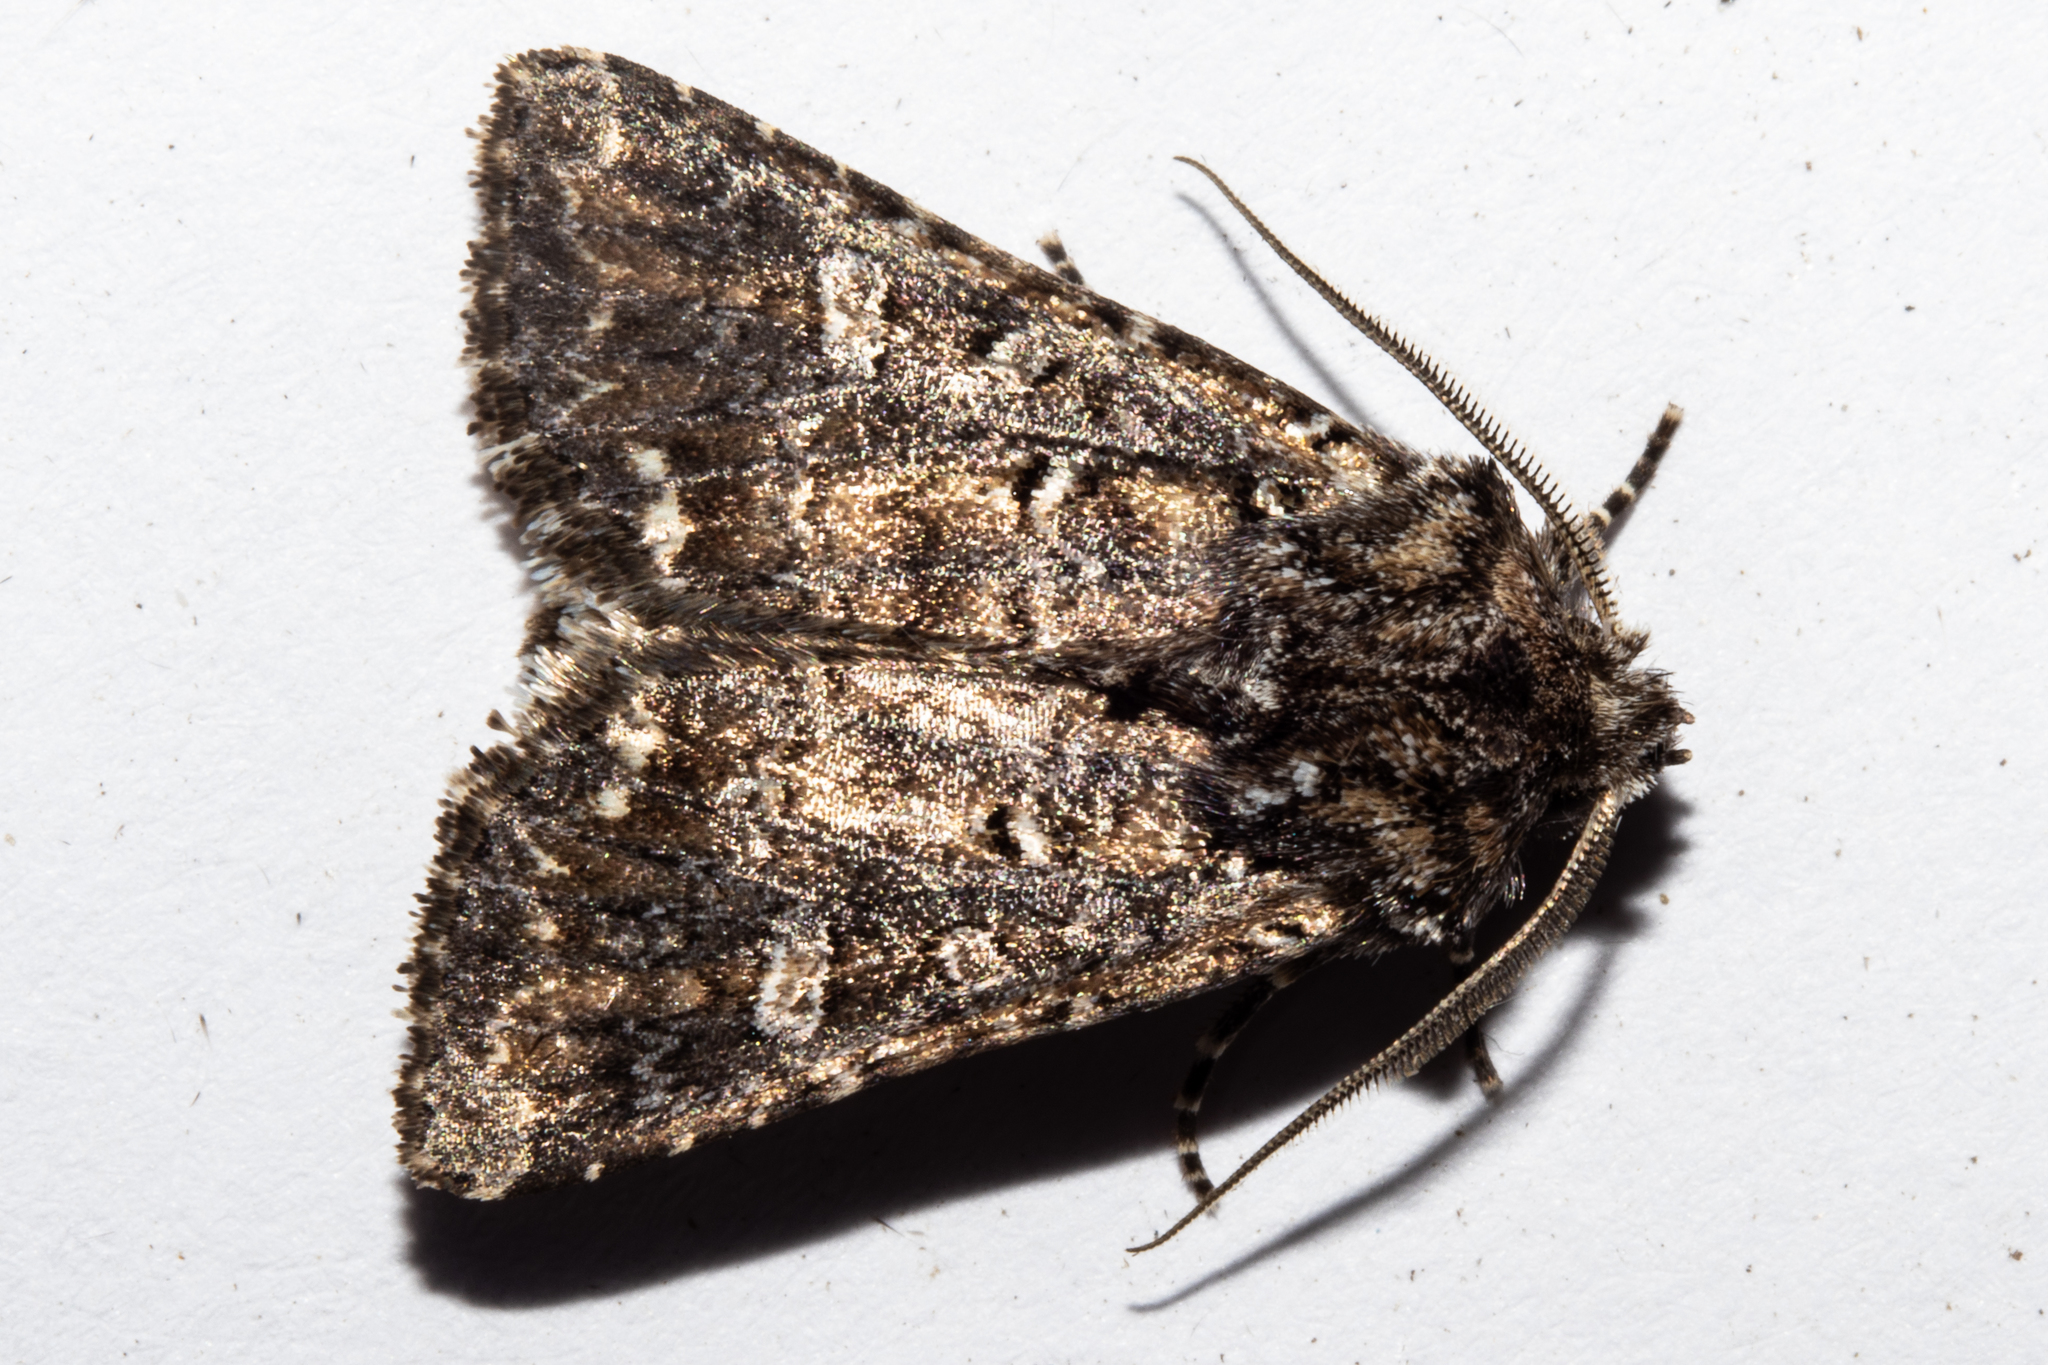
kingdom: Animalia
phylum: Arthropoda
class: Insecta
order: Lepidoptera
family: Noctuidae
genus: Ichneutica
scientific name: Ichneutica lithias
